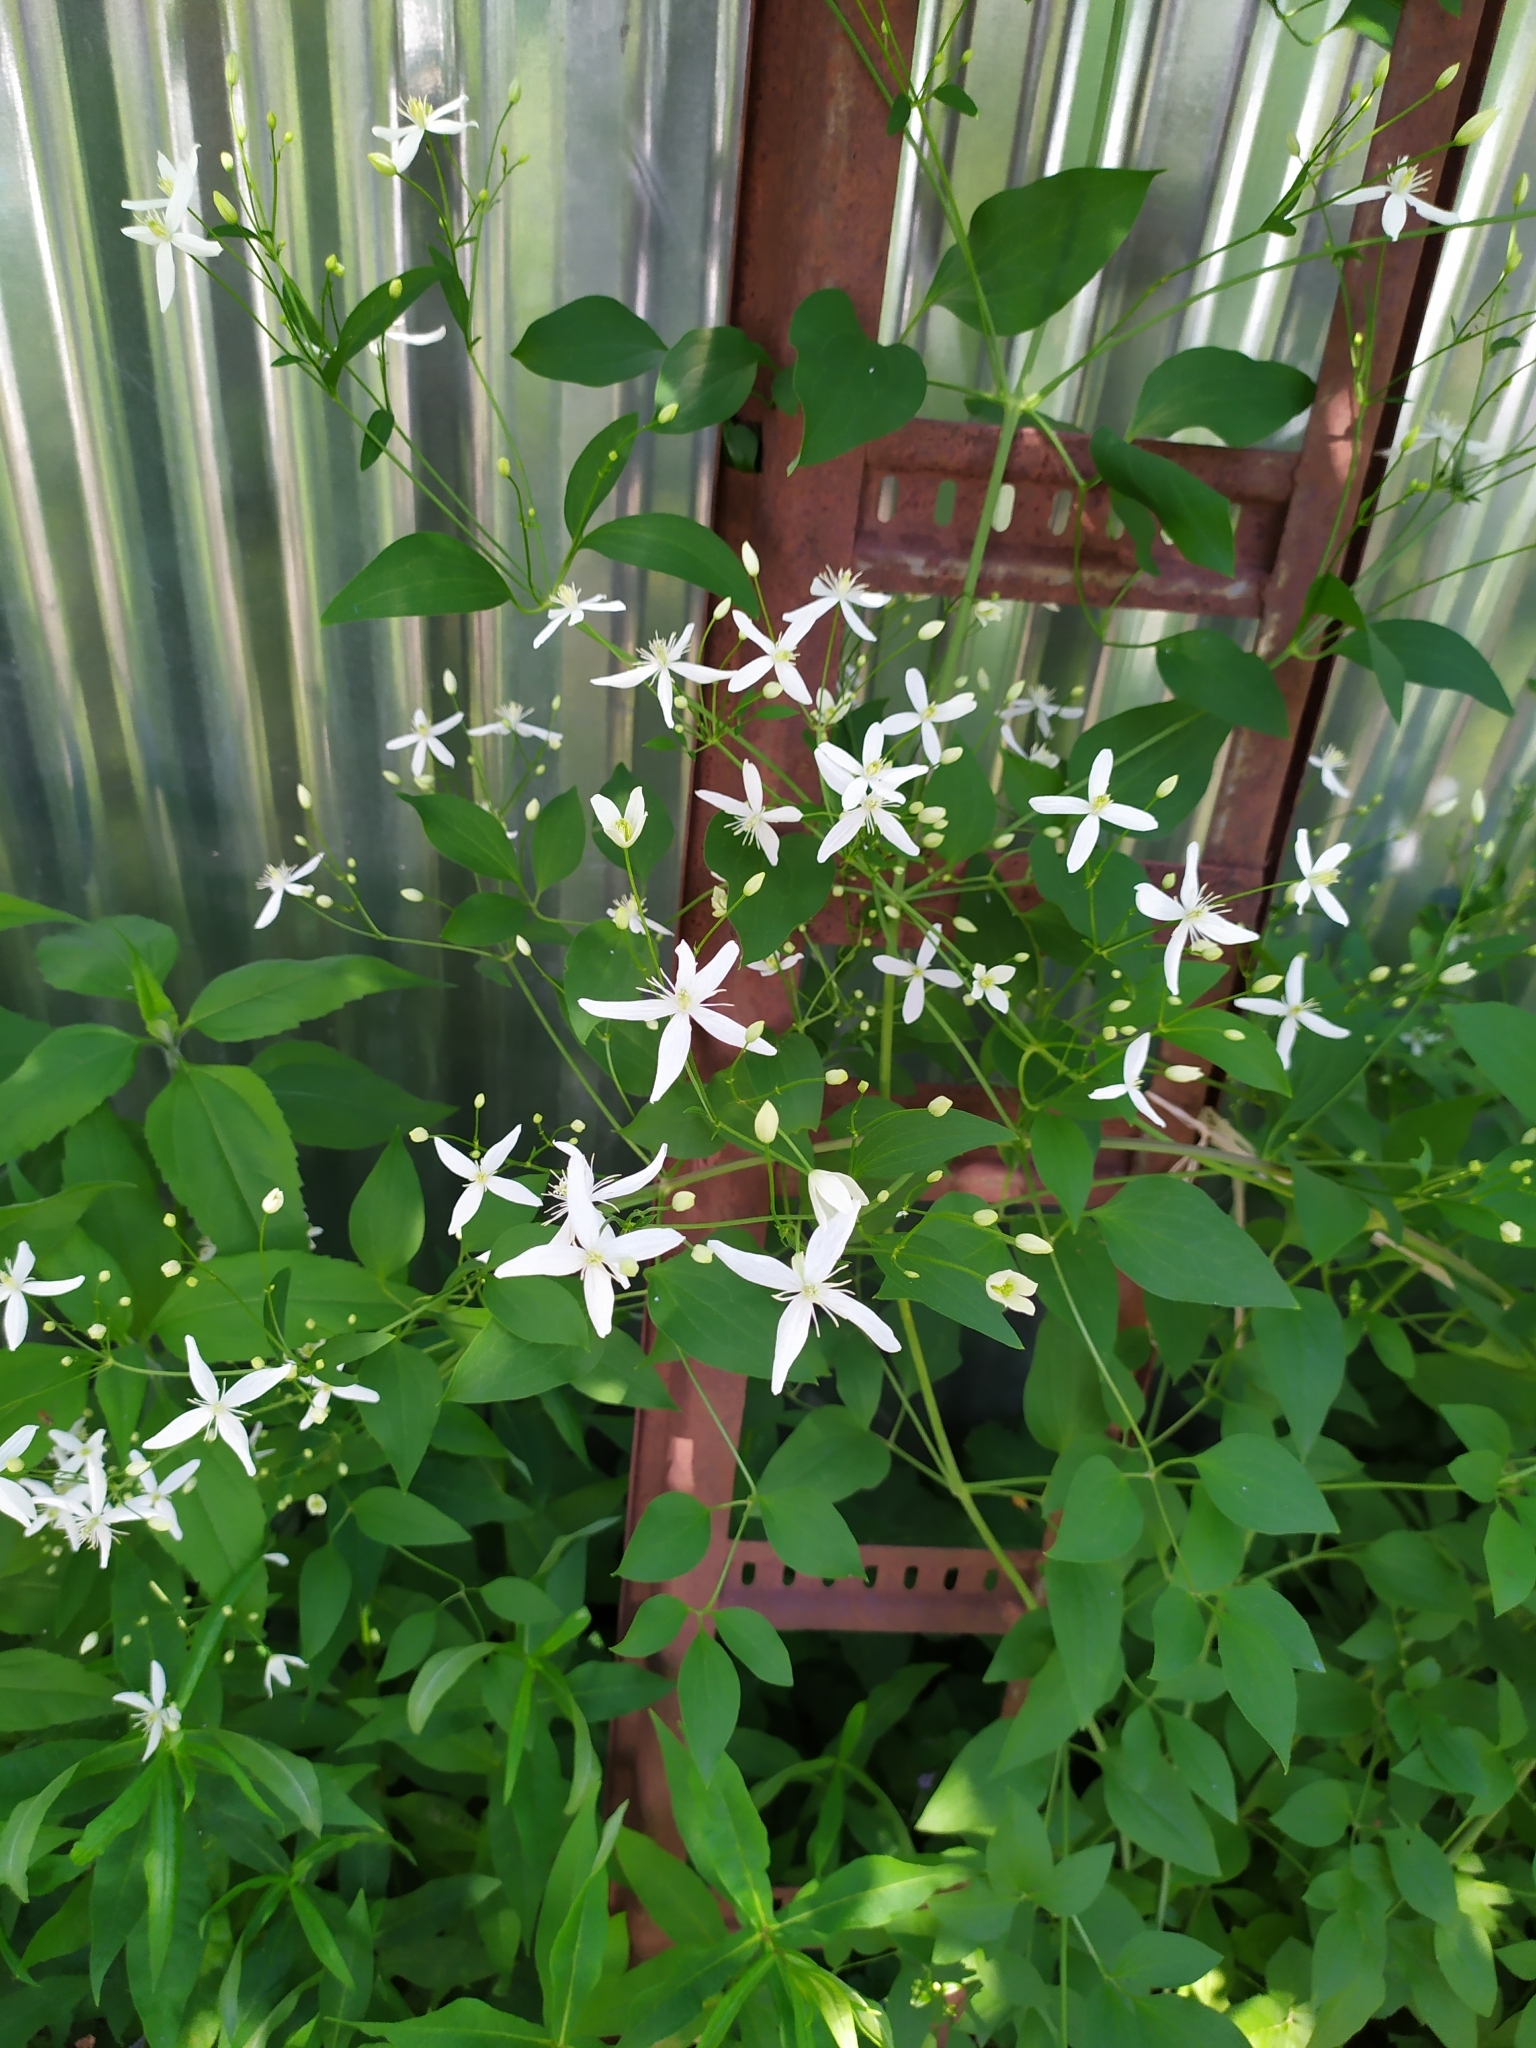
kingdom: Plantae
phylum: Tracheophyta
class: Magnoliopsida
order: Ranunculales
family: Ranunculaceae
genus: Clematis
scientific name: Clematis recta
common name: Ground clematis
